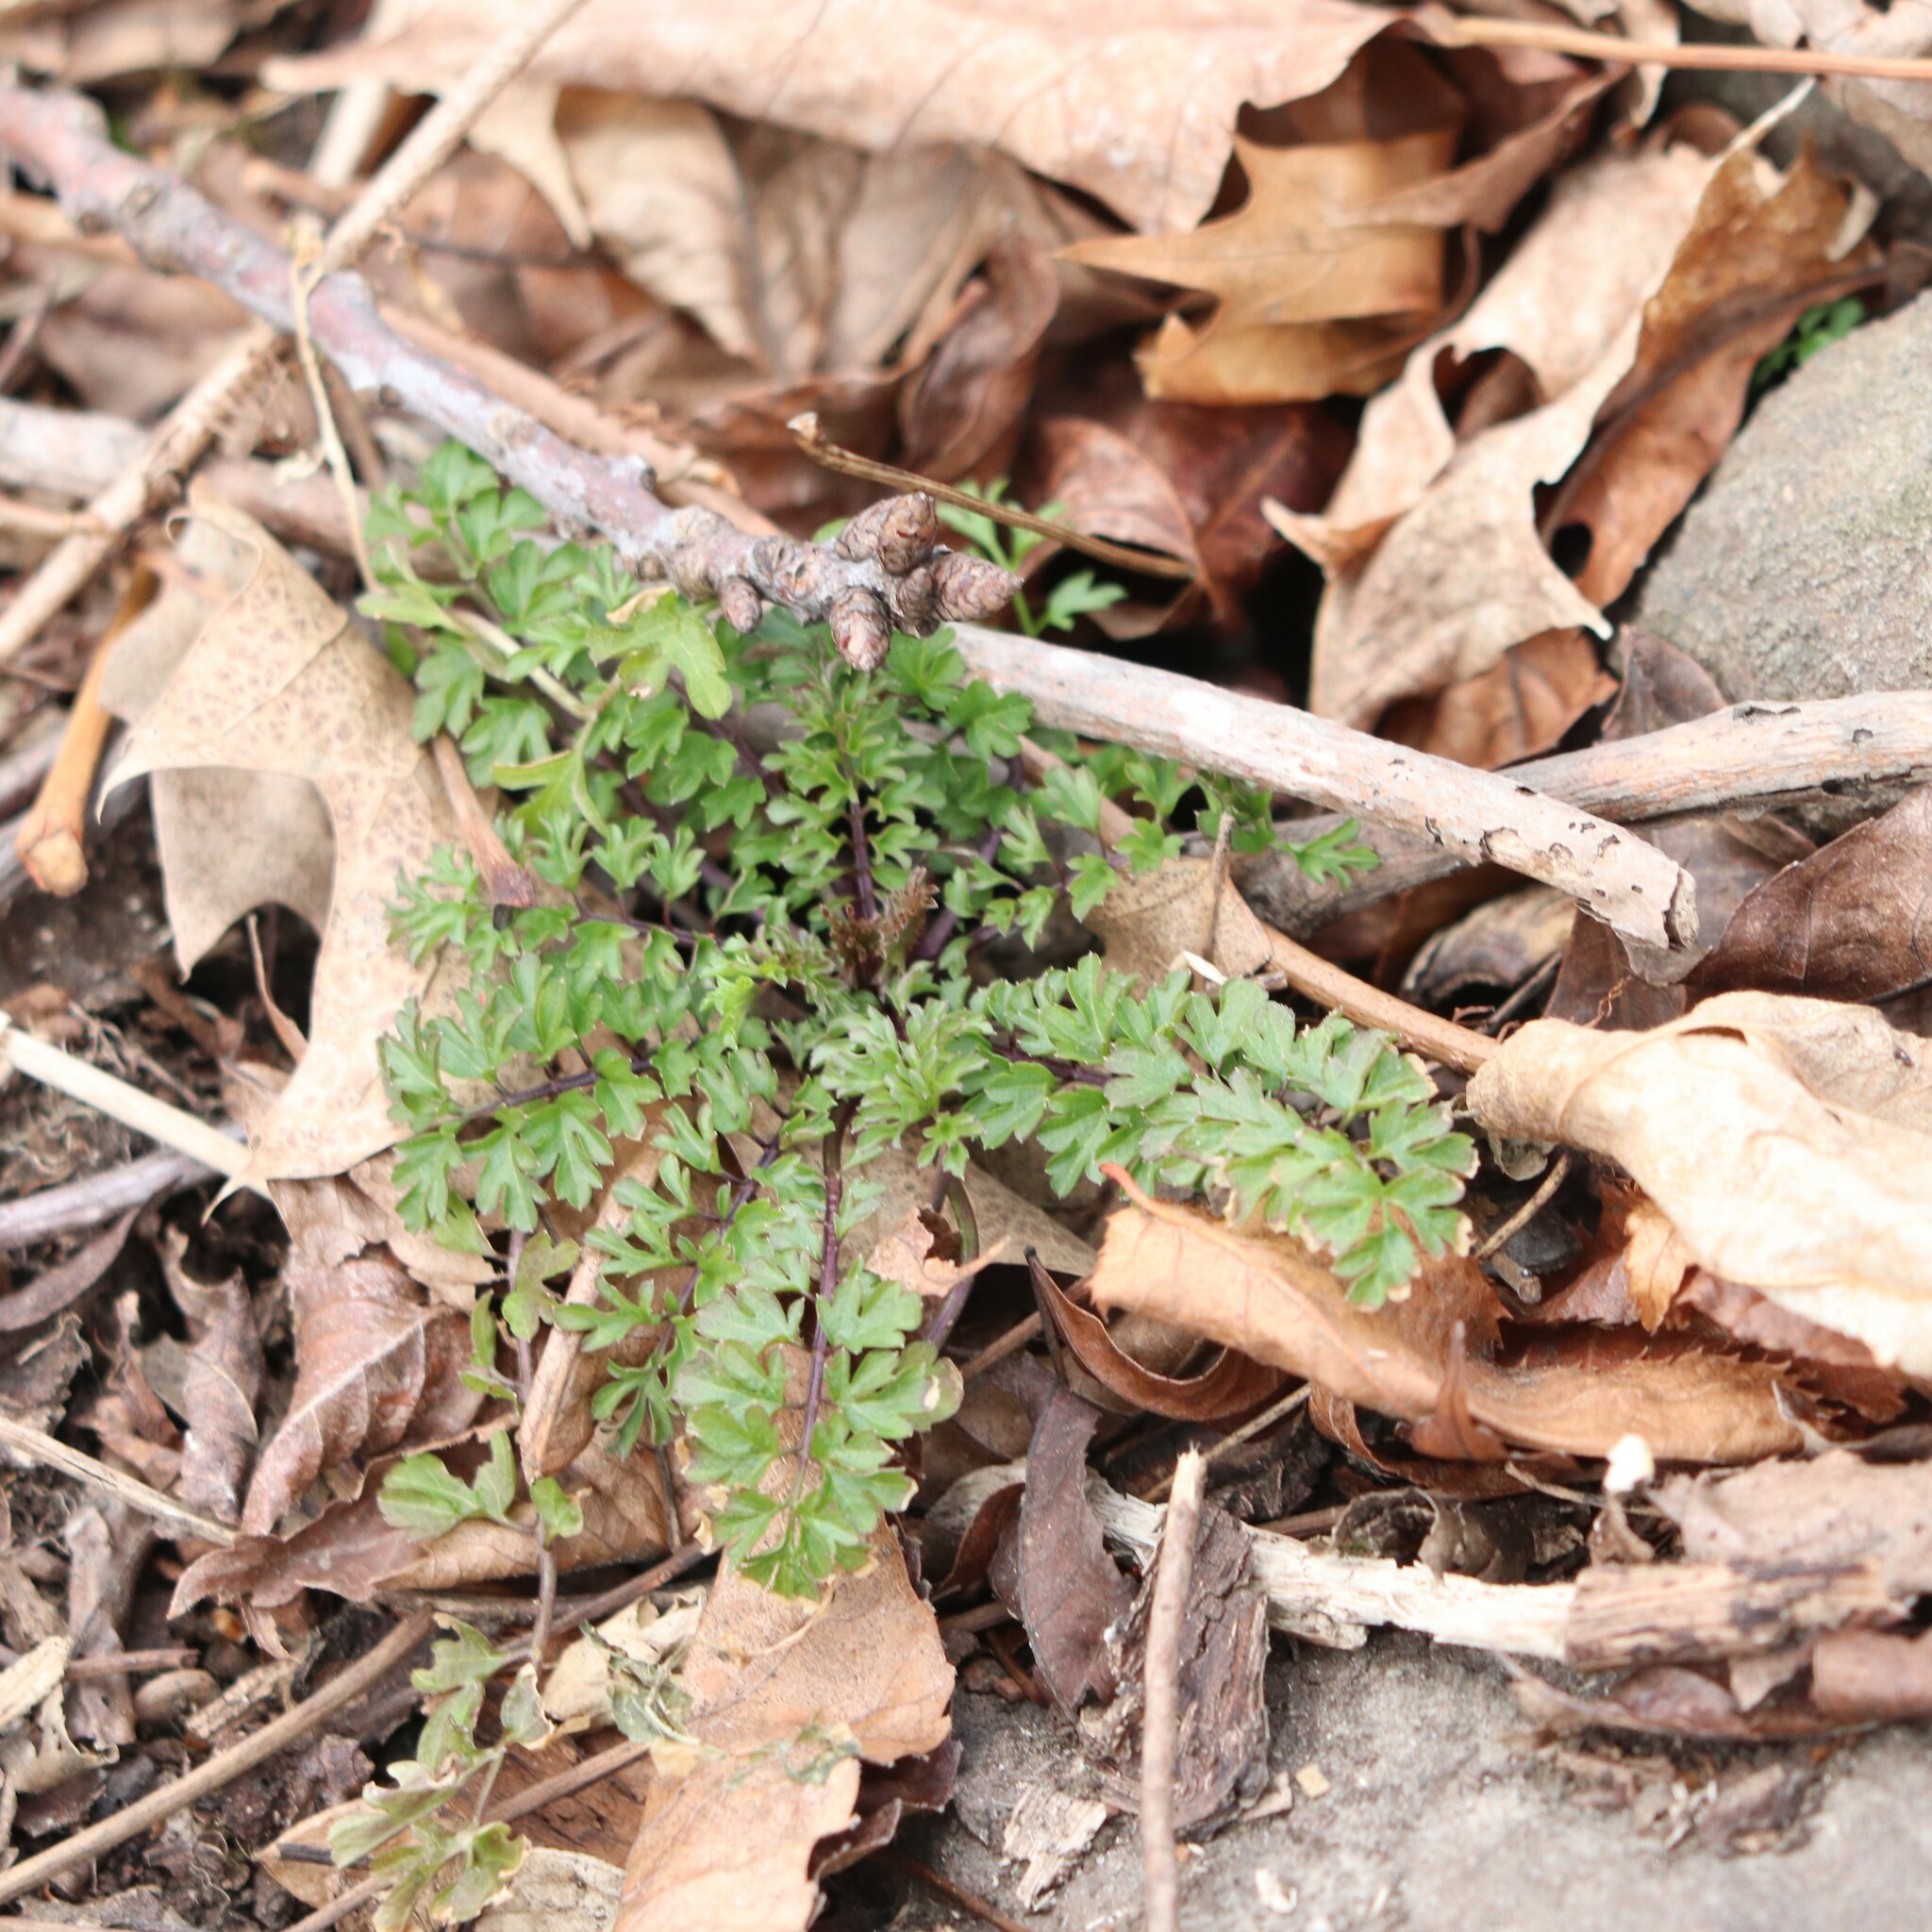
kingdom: Plantae
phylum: Tracheophyta
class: Magnoliopsida
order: Brassicales
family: Brassicaceae
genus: Cardamine
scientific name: Cardamine impatiens
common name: Narrow-leaved bitter-cress
